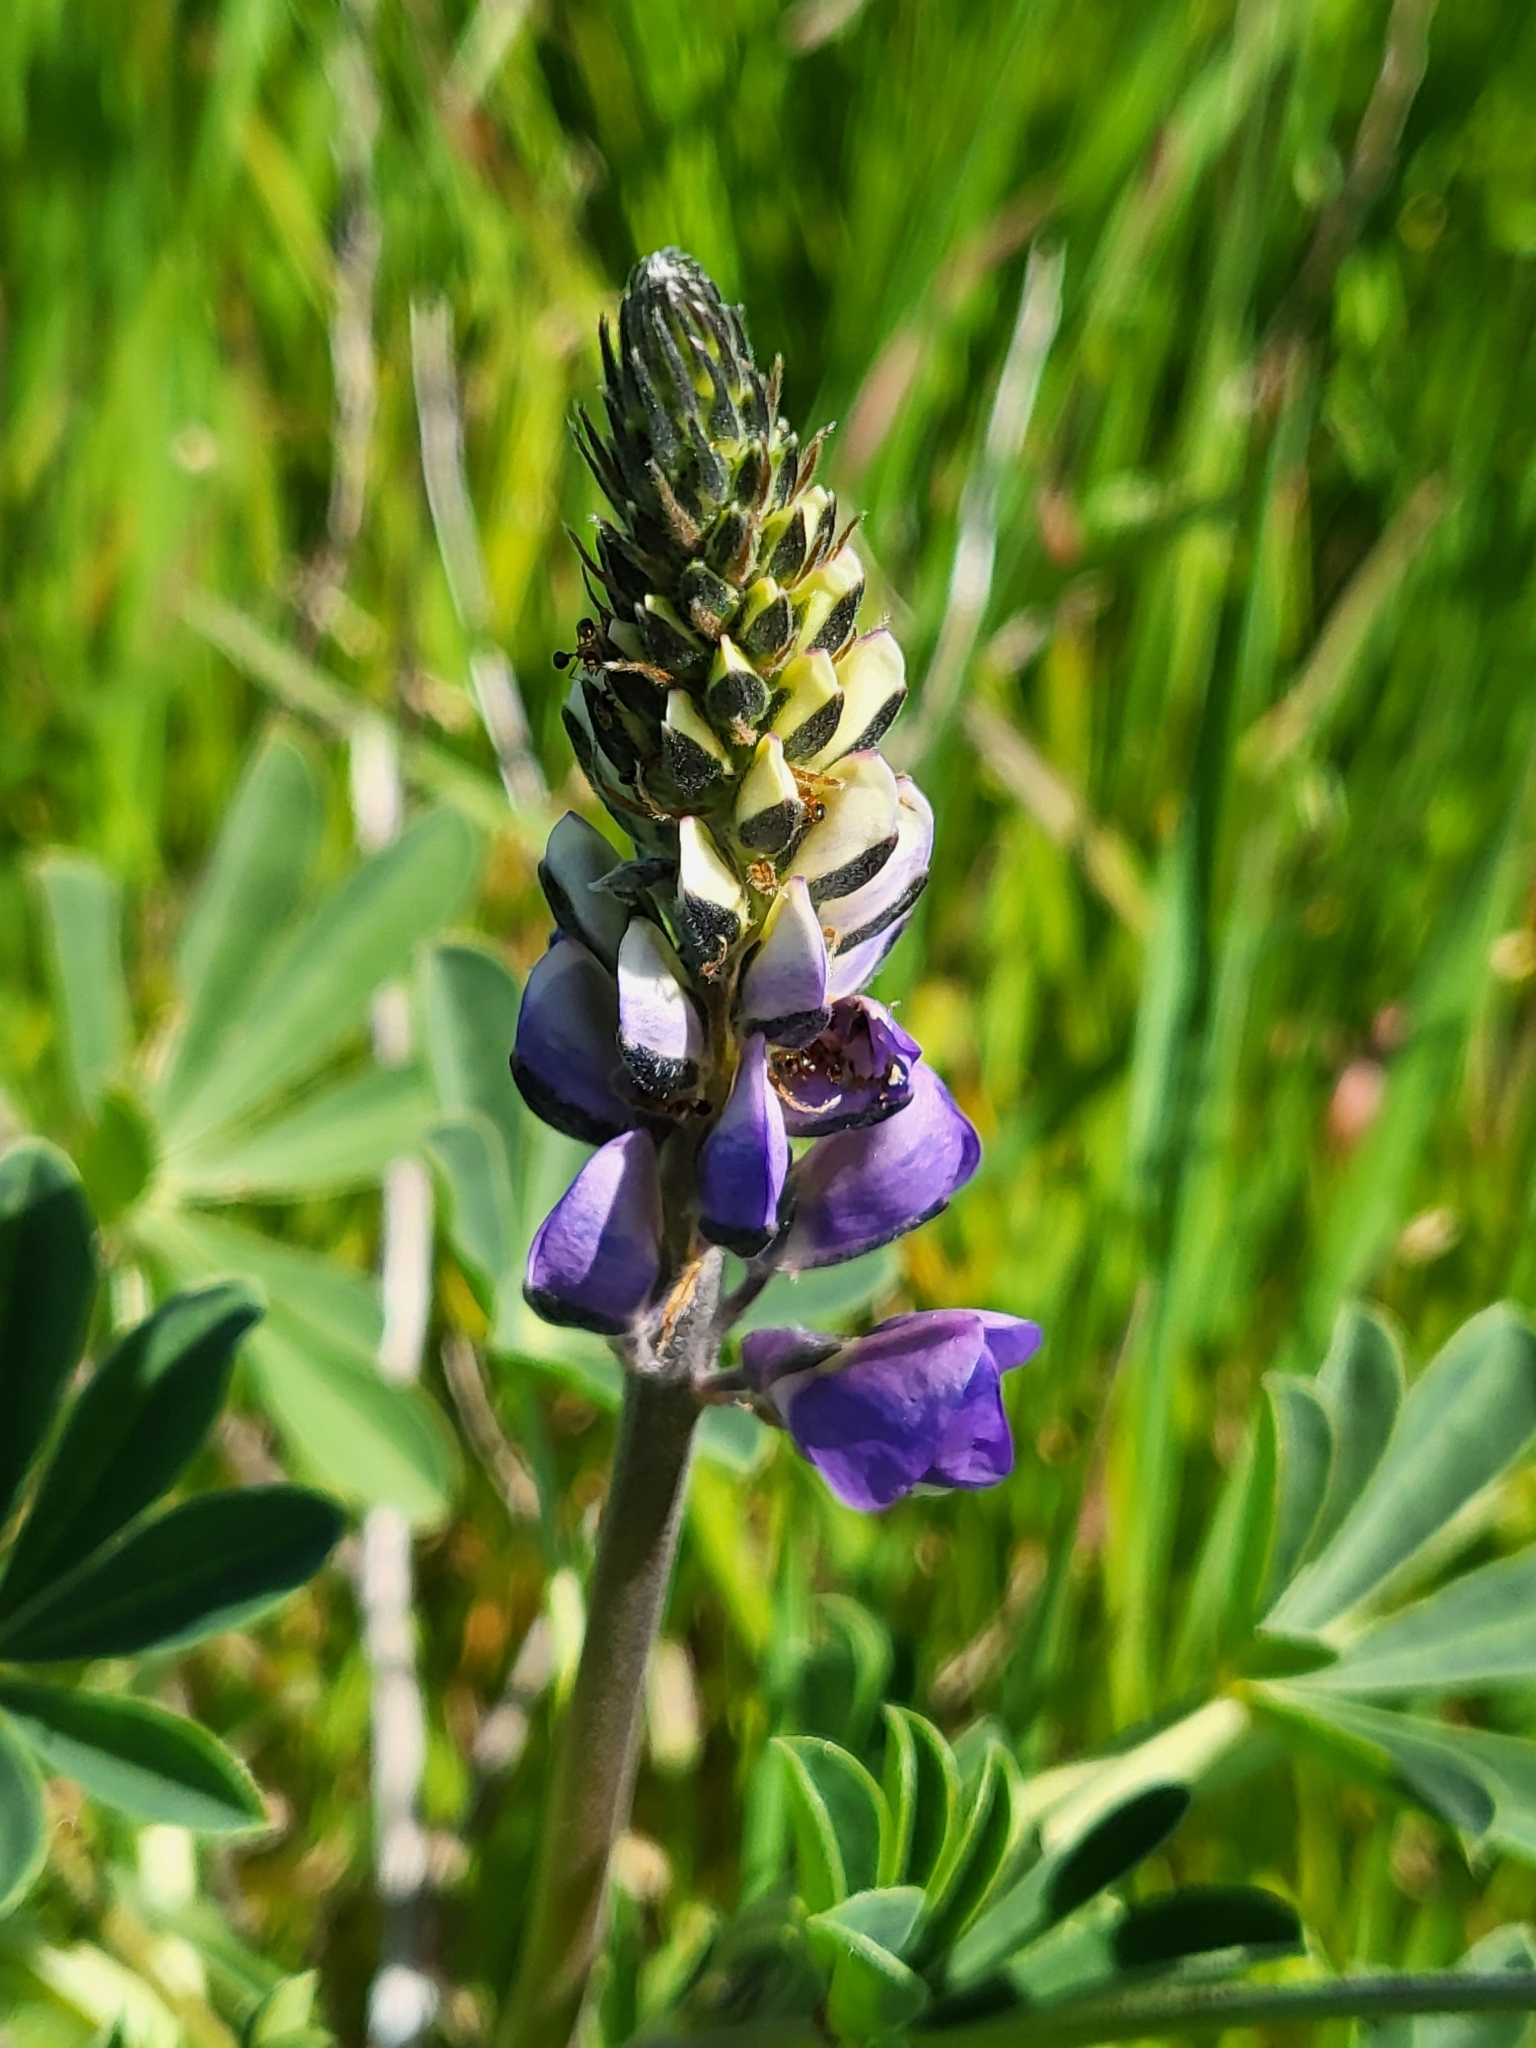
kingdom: Plantae
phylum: Tracheophyta
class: Magnoliopsida
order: Fabales
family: Fabaceae
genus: Lupinus
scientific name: Lupinus succulentus
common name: Arroyo lupine
